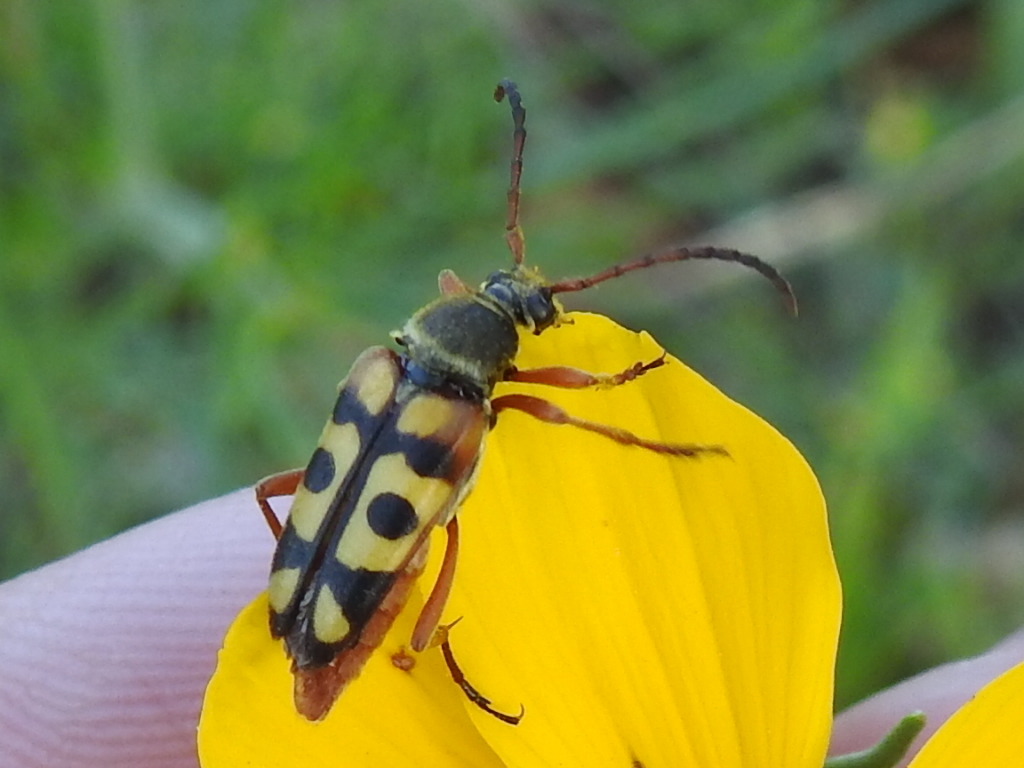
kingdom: Animalia
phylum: Arthropoda
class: Insecta
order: Coleoptera
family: Cerambycidae
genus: Typocerus
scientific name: Typocerus sinuatus
